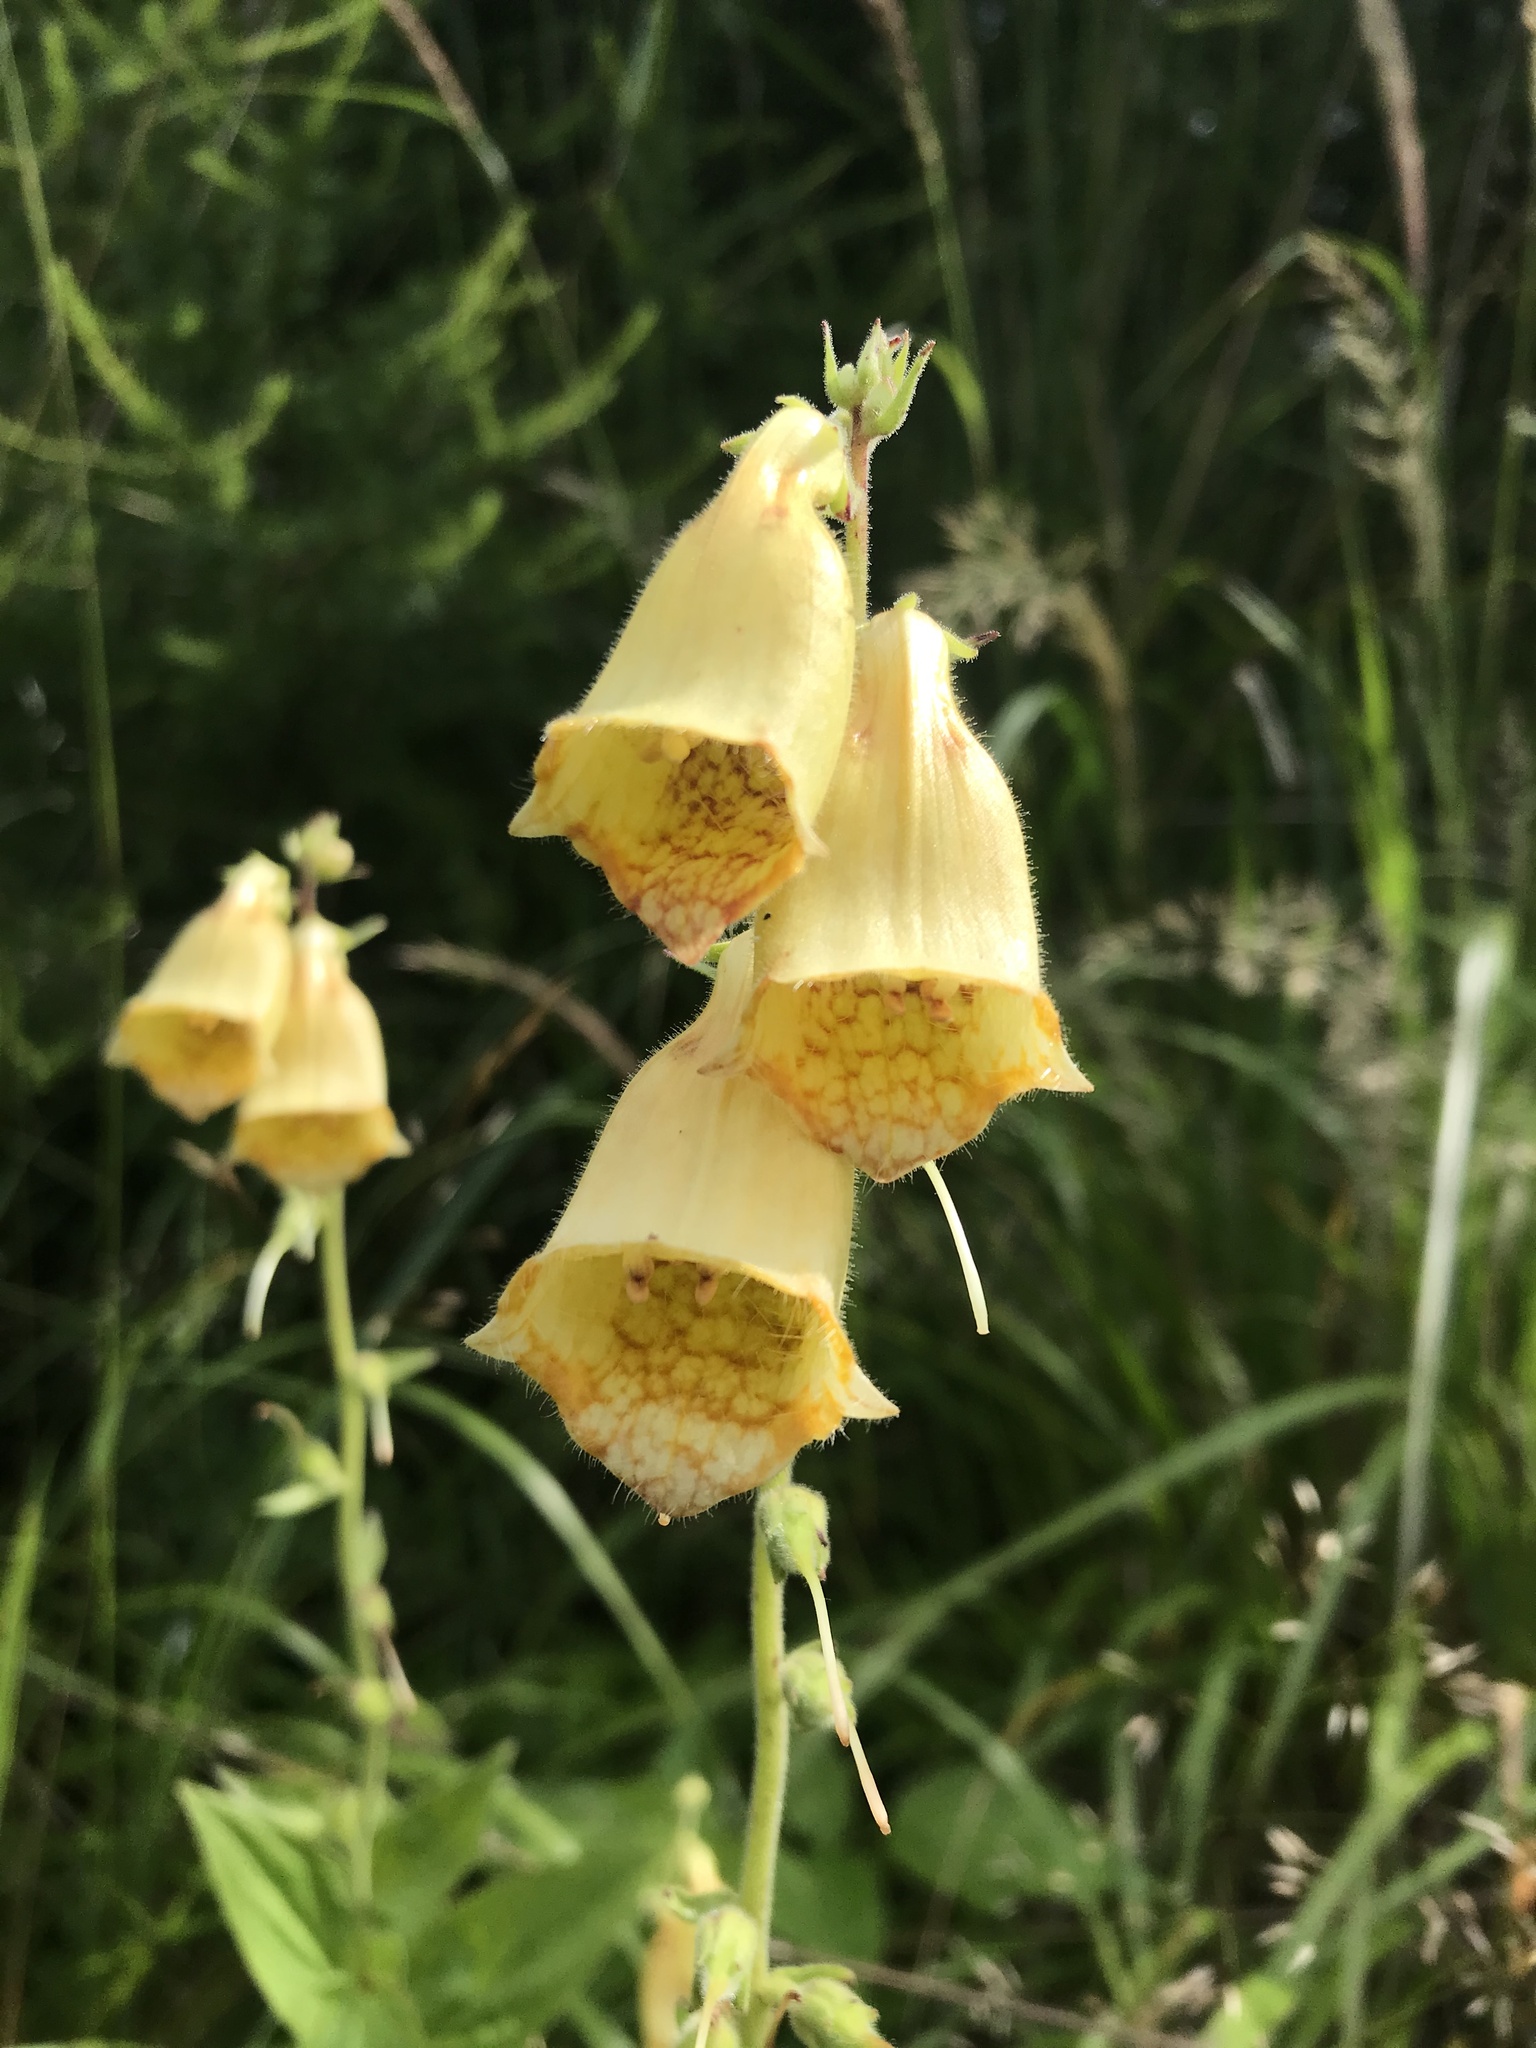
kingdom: Plantae
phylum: Tracheophyta
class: Magnoliopsida
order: Lamiales
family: Plantaginaceae
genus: Digitalis
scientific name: Digitalis grandiflora
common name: Yellow foxglove
